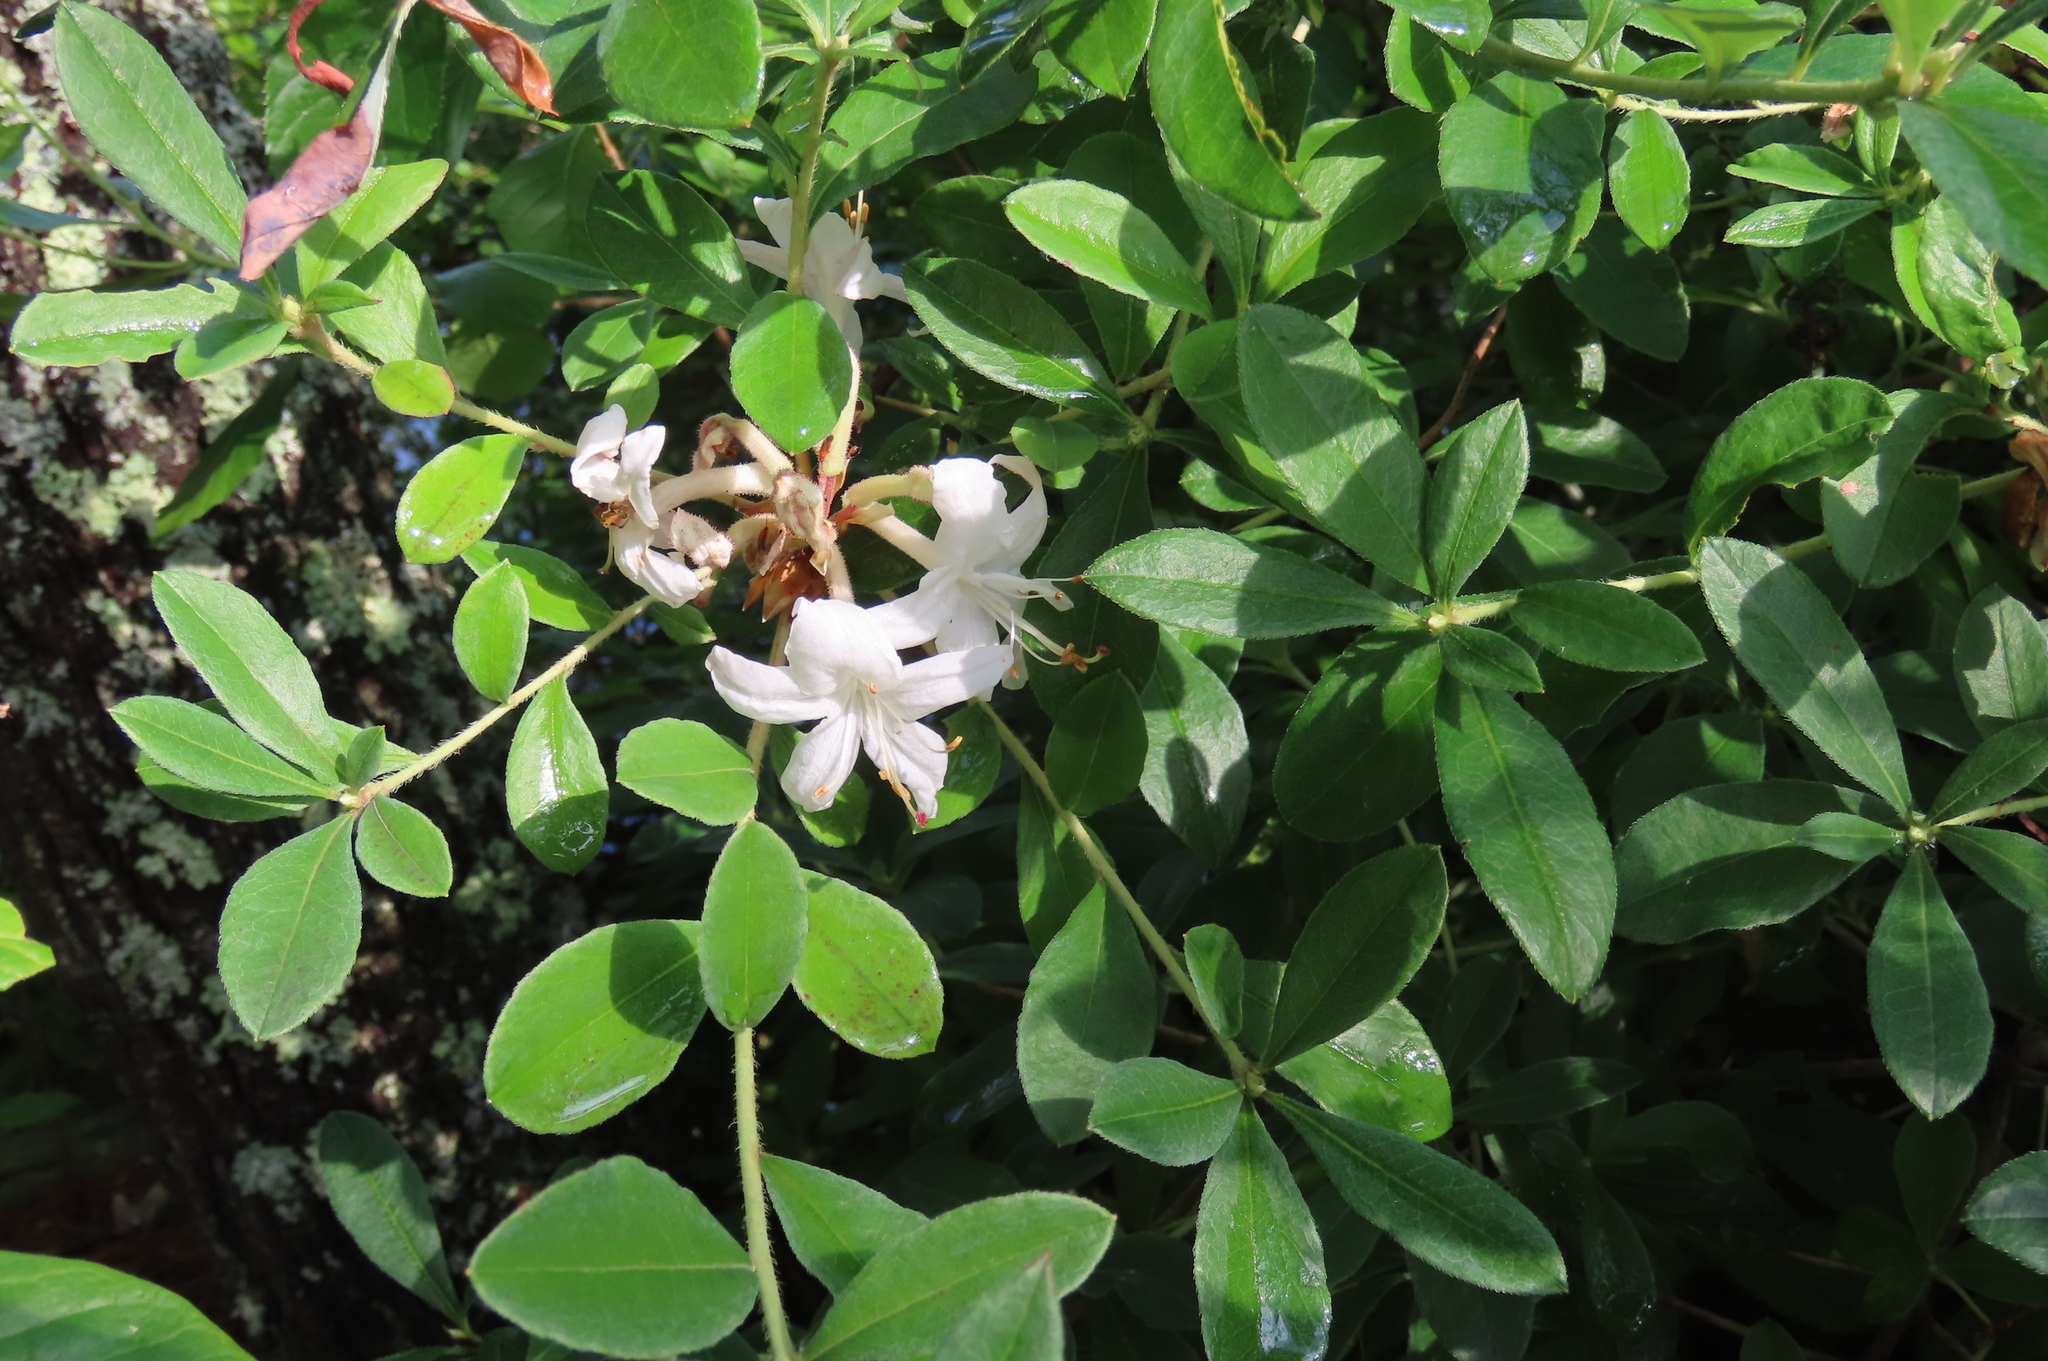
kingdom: Plantae
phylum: Tracheophyta
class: Magnoliopsida
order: Ericales
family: Ericaceae
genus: Rhododendron
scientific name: Rhododendron viscosum
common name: Clammy azalea
